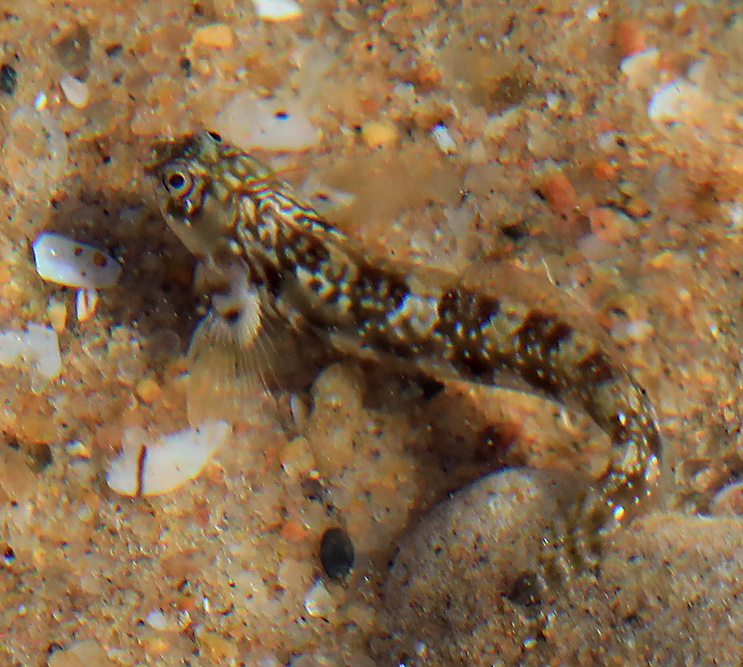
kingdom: Animalia
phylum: Chordata
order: Perciformes
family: Blenniidae
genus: Antennablennius
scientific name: Antennablennius bifilum
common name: Horned rockskipper
